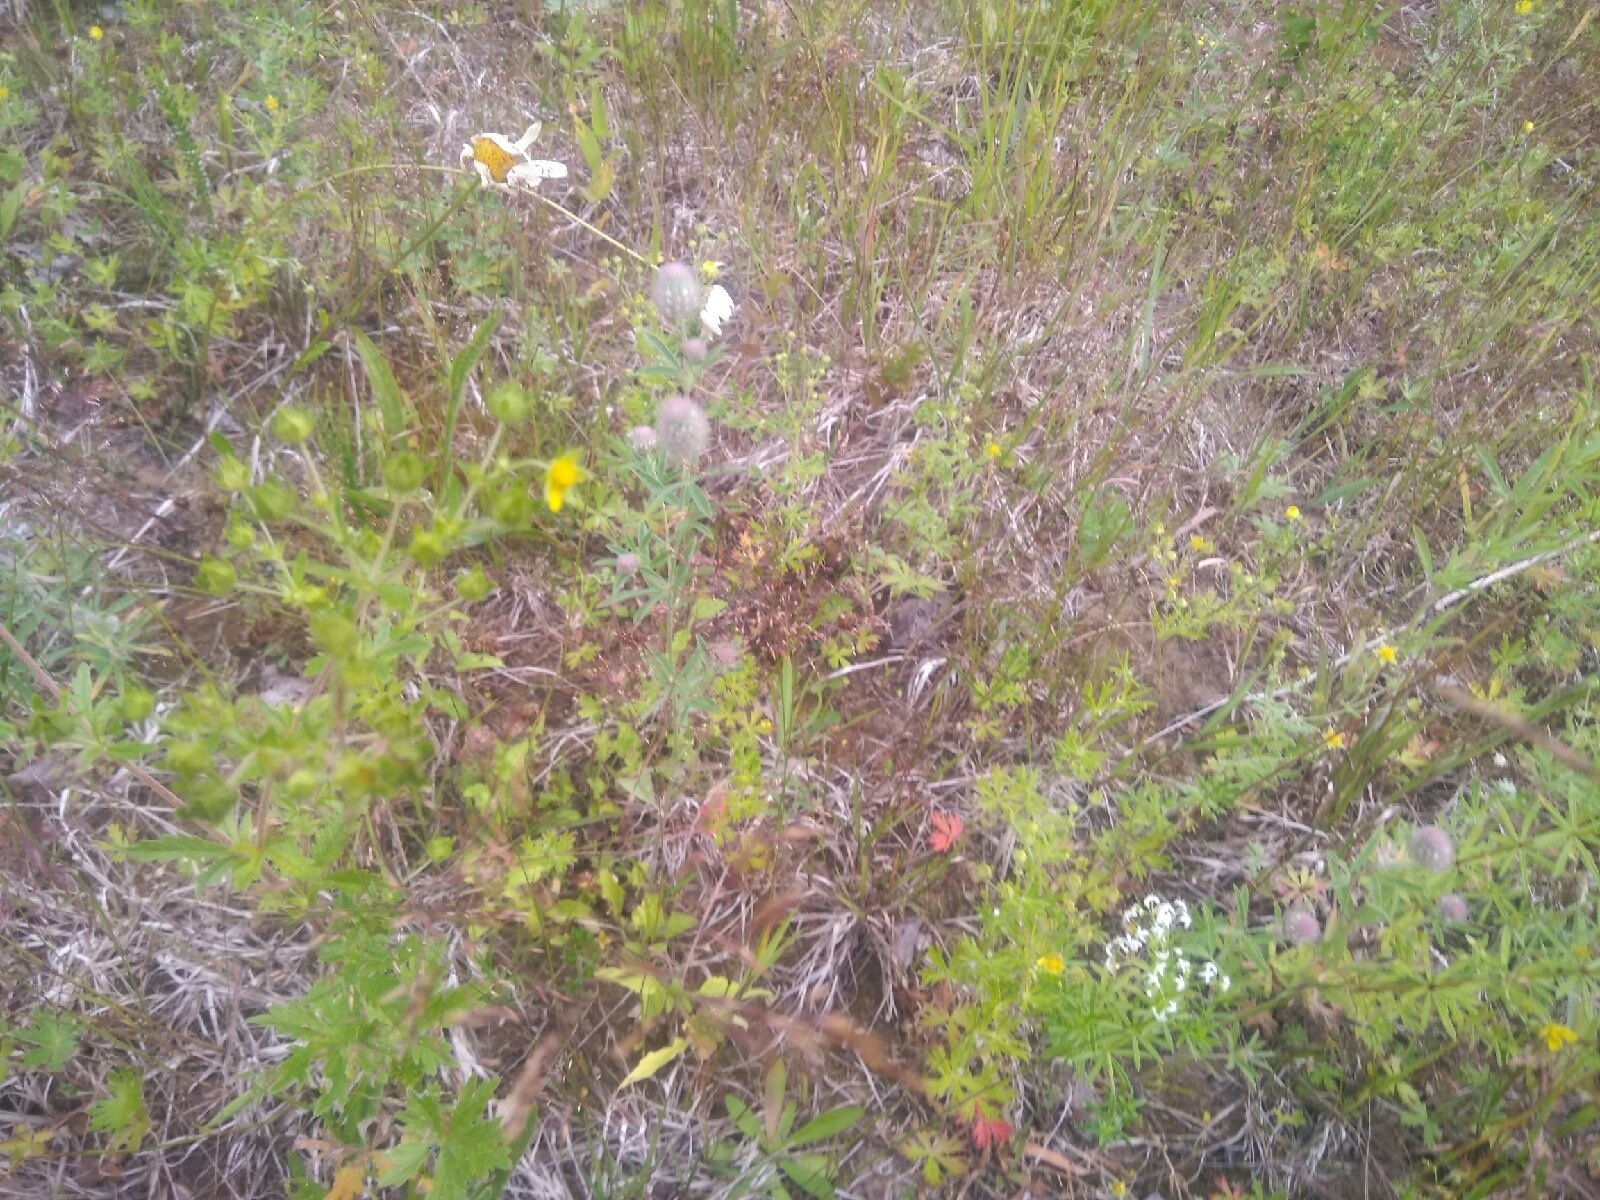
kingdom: Plantae
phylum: Tracheophyta
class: Magnoliopsida
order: Rosales
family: Rosaceae
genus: Potentilla
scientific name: Potentilla argentea
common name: Hoary cinquefoil
